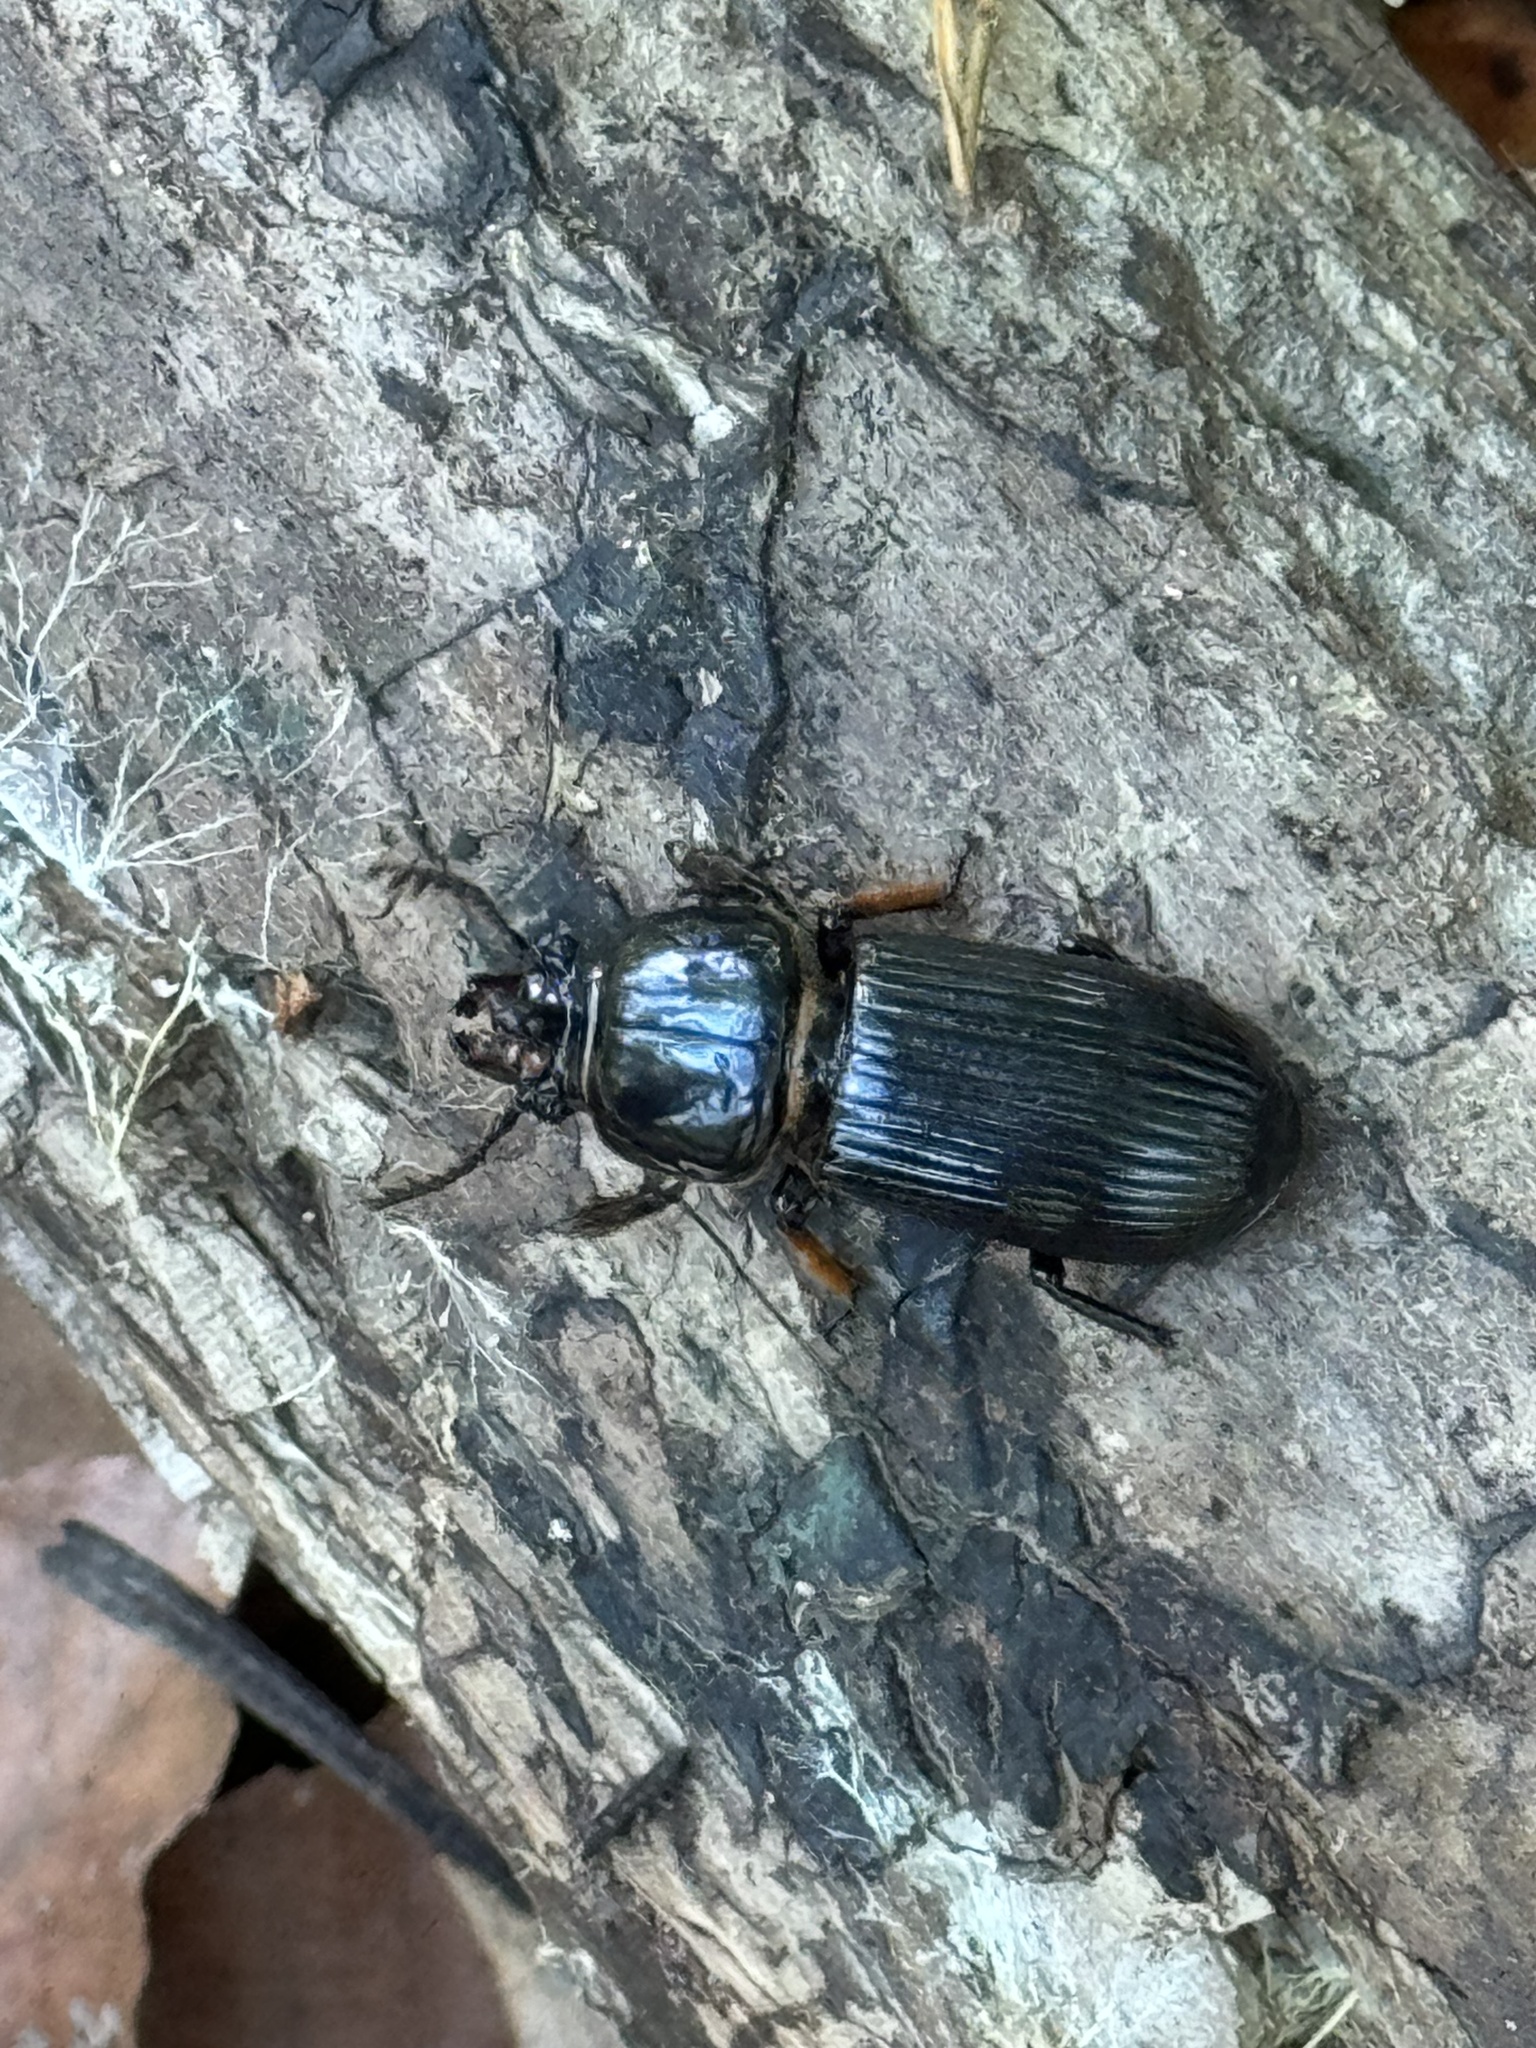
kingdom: Animalia
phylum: Arthropoda
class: Insecta
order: Coleoptera
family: Passalidae
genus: Odontotaenius
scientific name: Odontotaenius disjunctus
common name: Patent leather beetle
